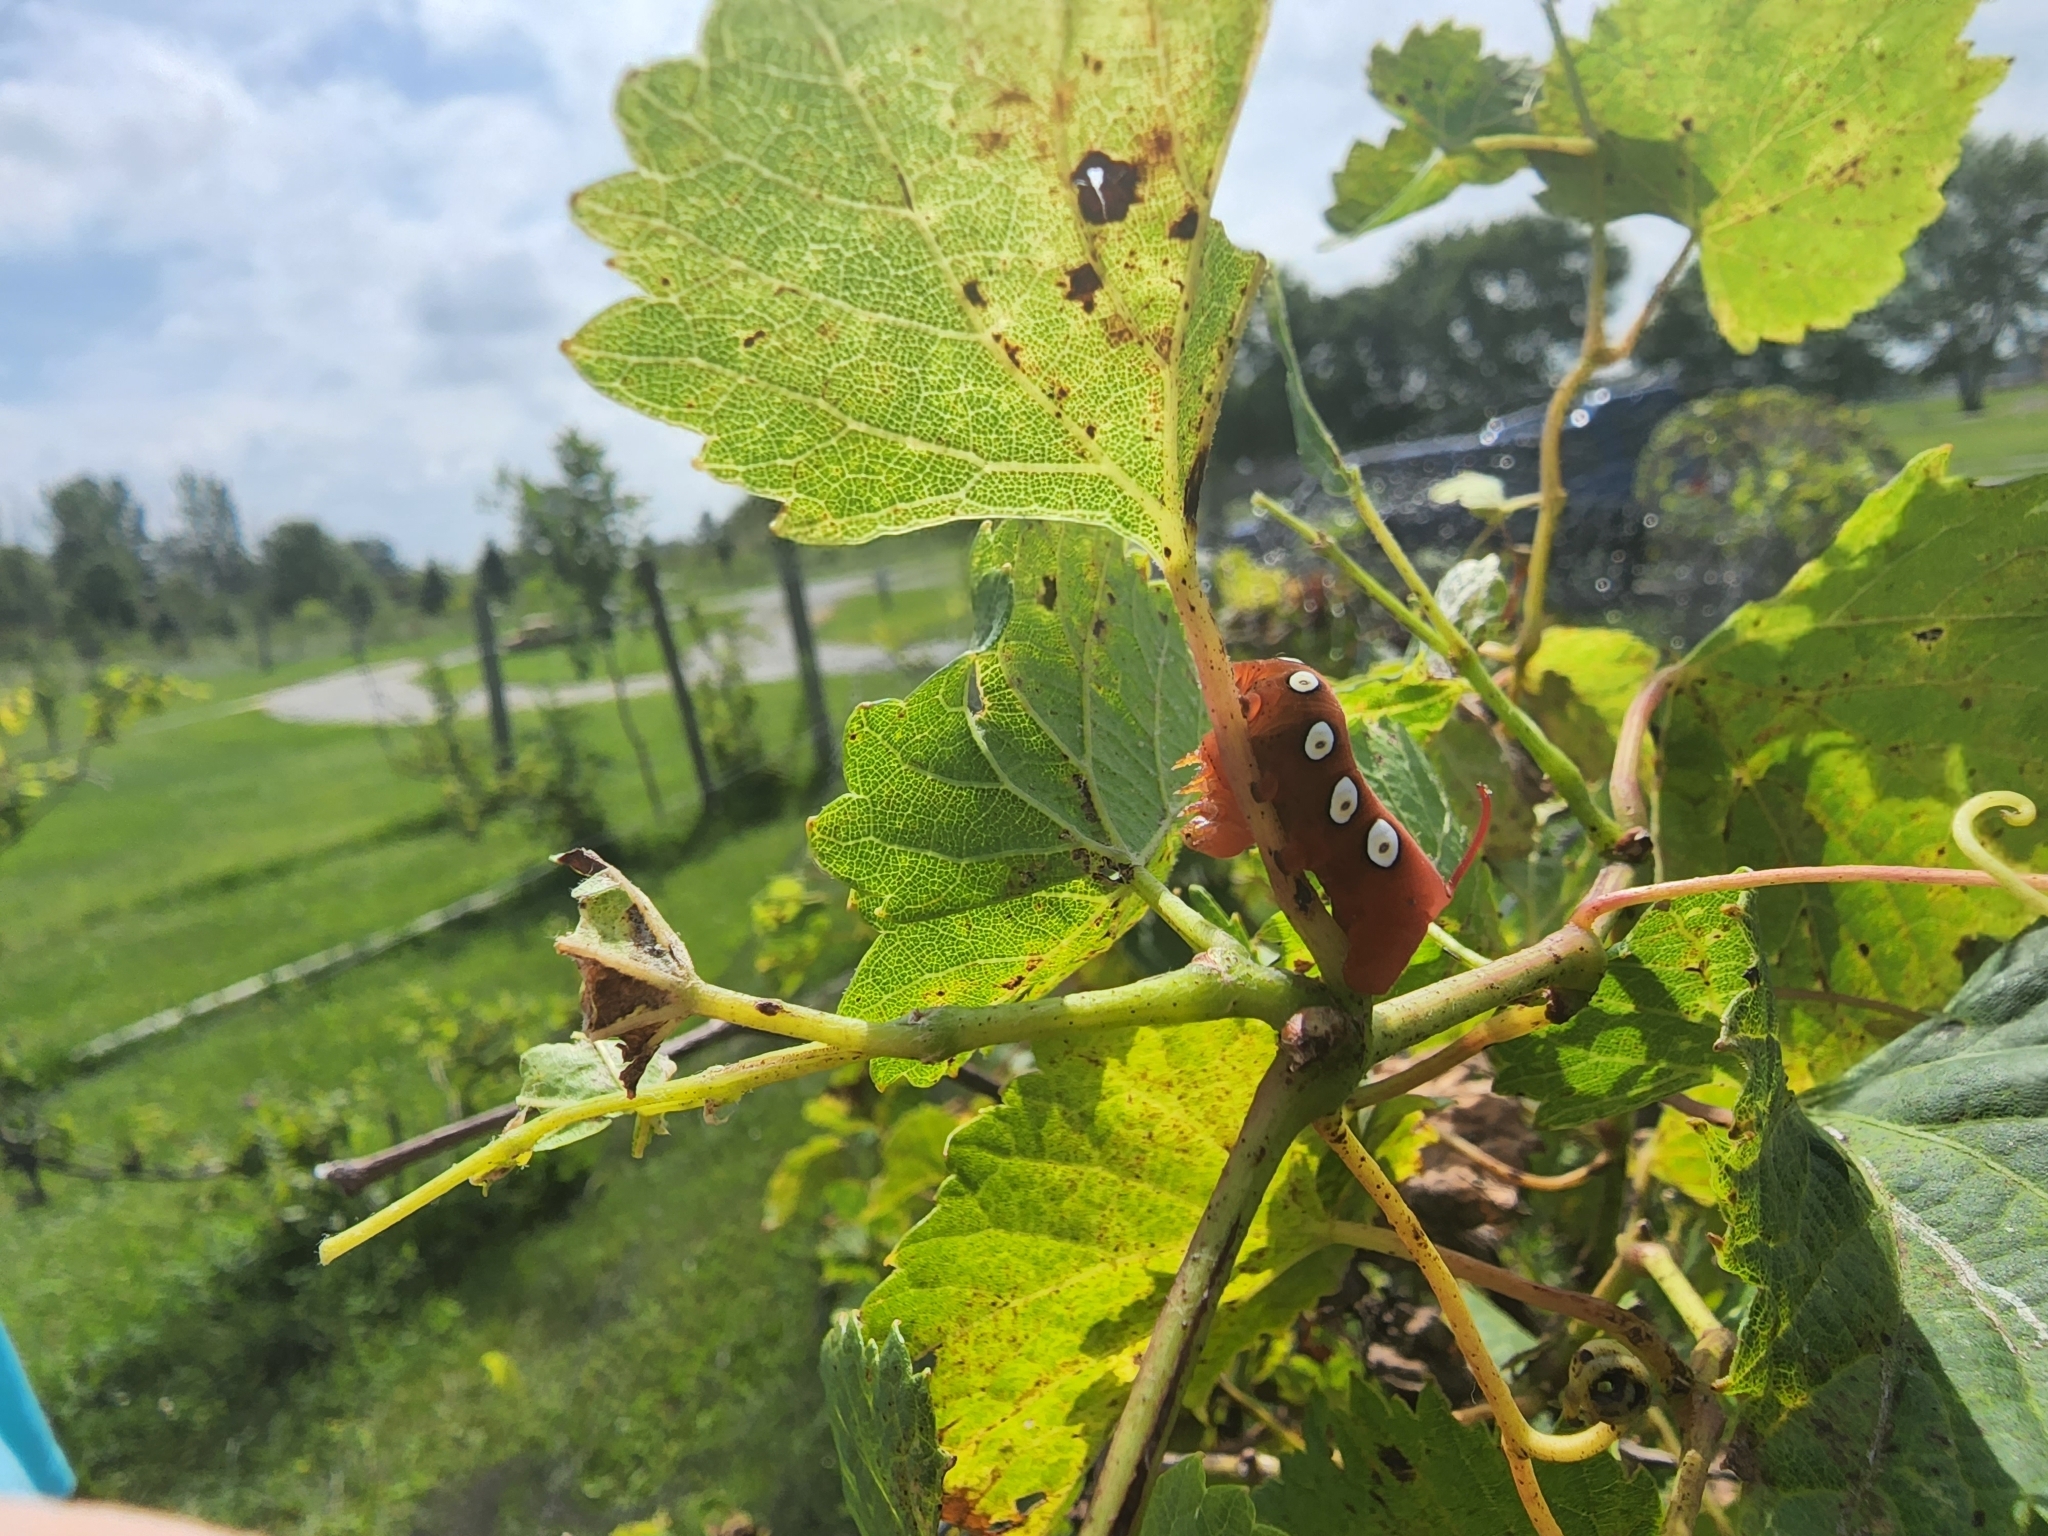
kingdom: Animalia
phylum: Arthropoda
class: Insecta
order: Lepidoptera
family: Sphingidae
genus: Eumorpha
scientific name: Eumorpha pandorus
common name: Pandora sphinx
